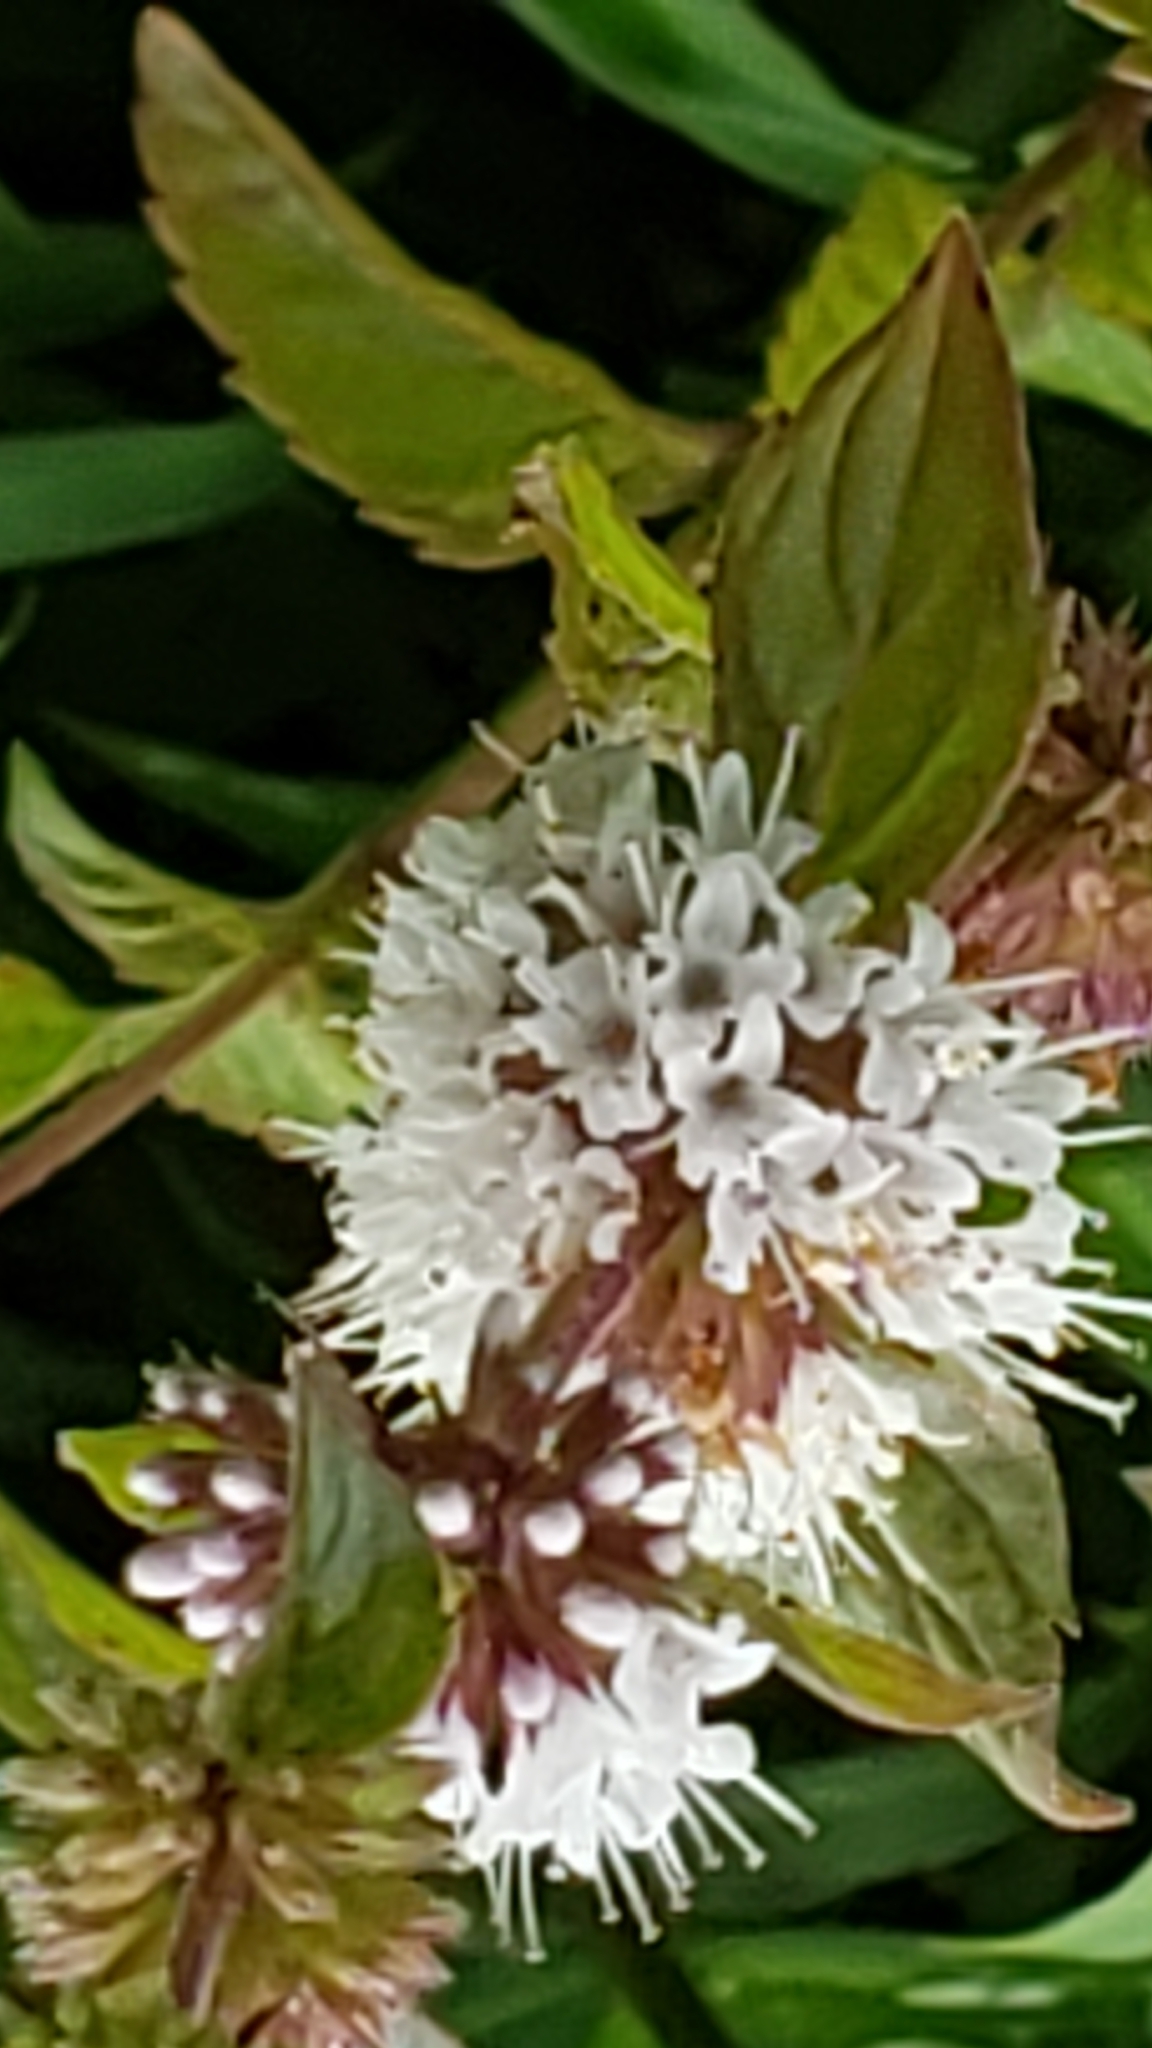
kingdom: Plantae
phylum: Tracheophyta
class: Magnoliopsida
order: Lamiales
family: Lamiaceae
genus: Mentha
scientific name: Mentha verticillata
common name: Mint
